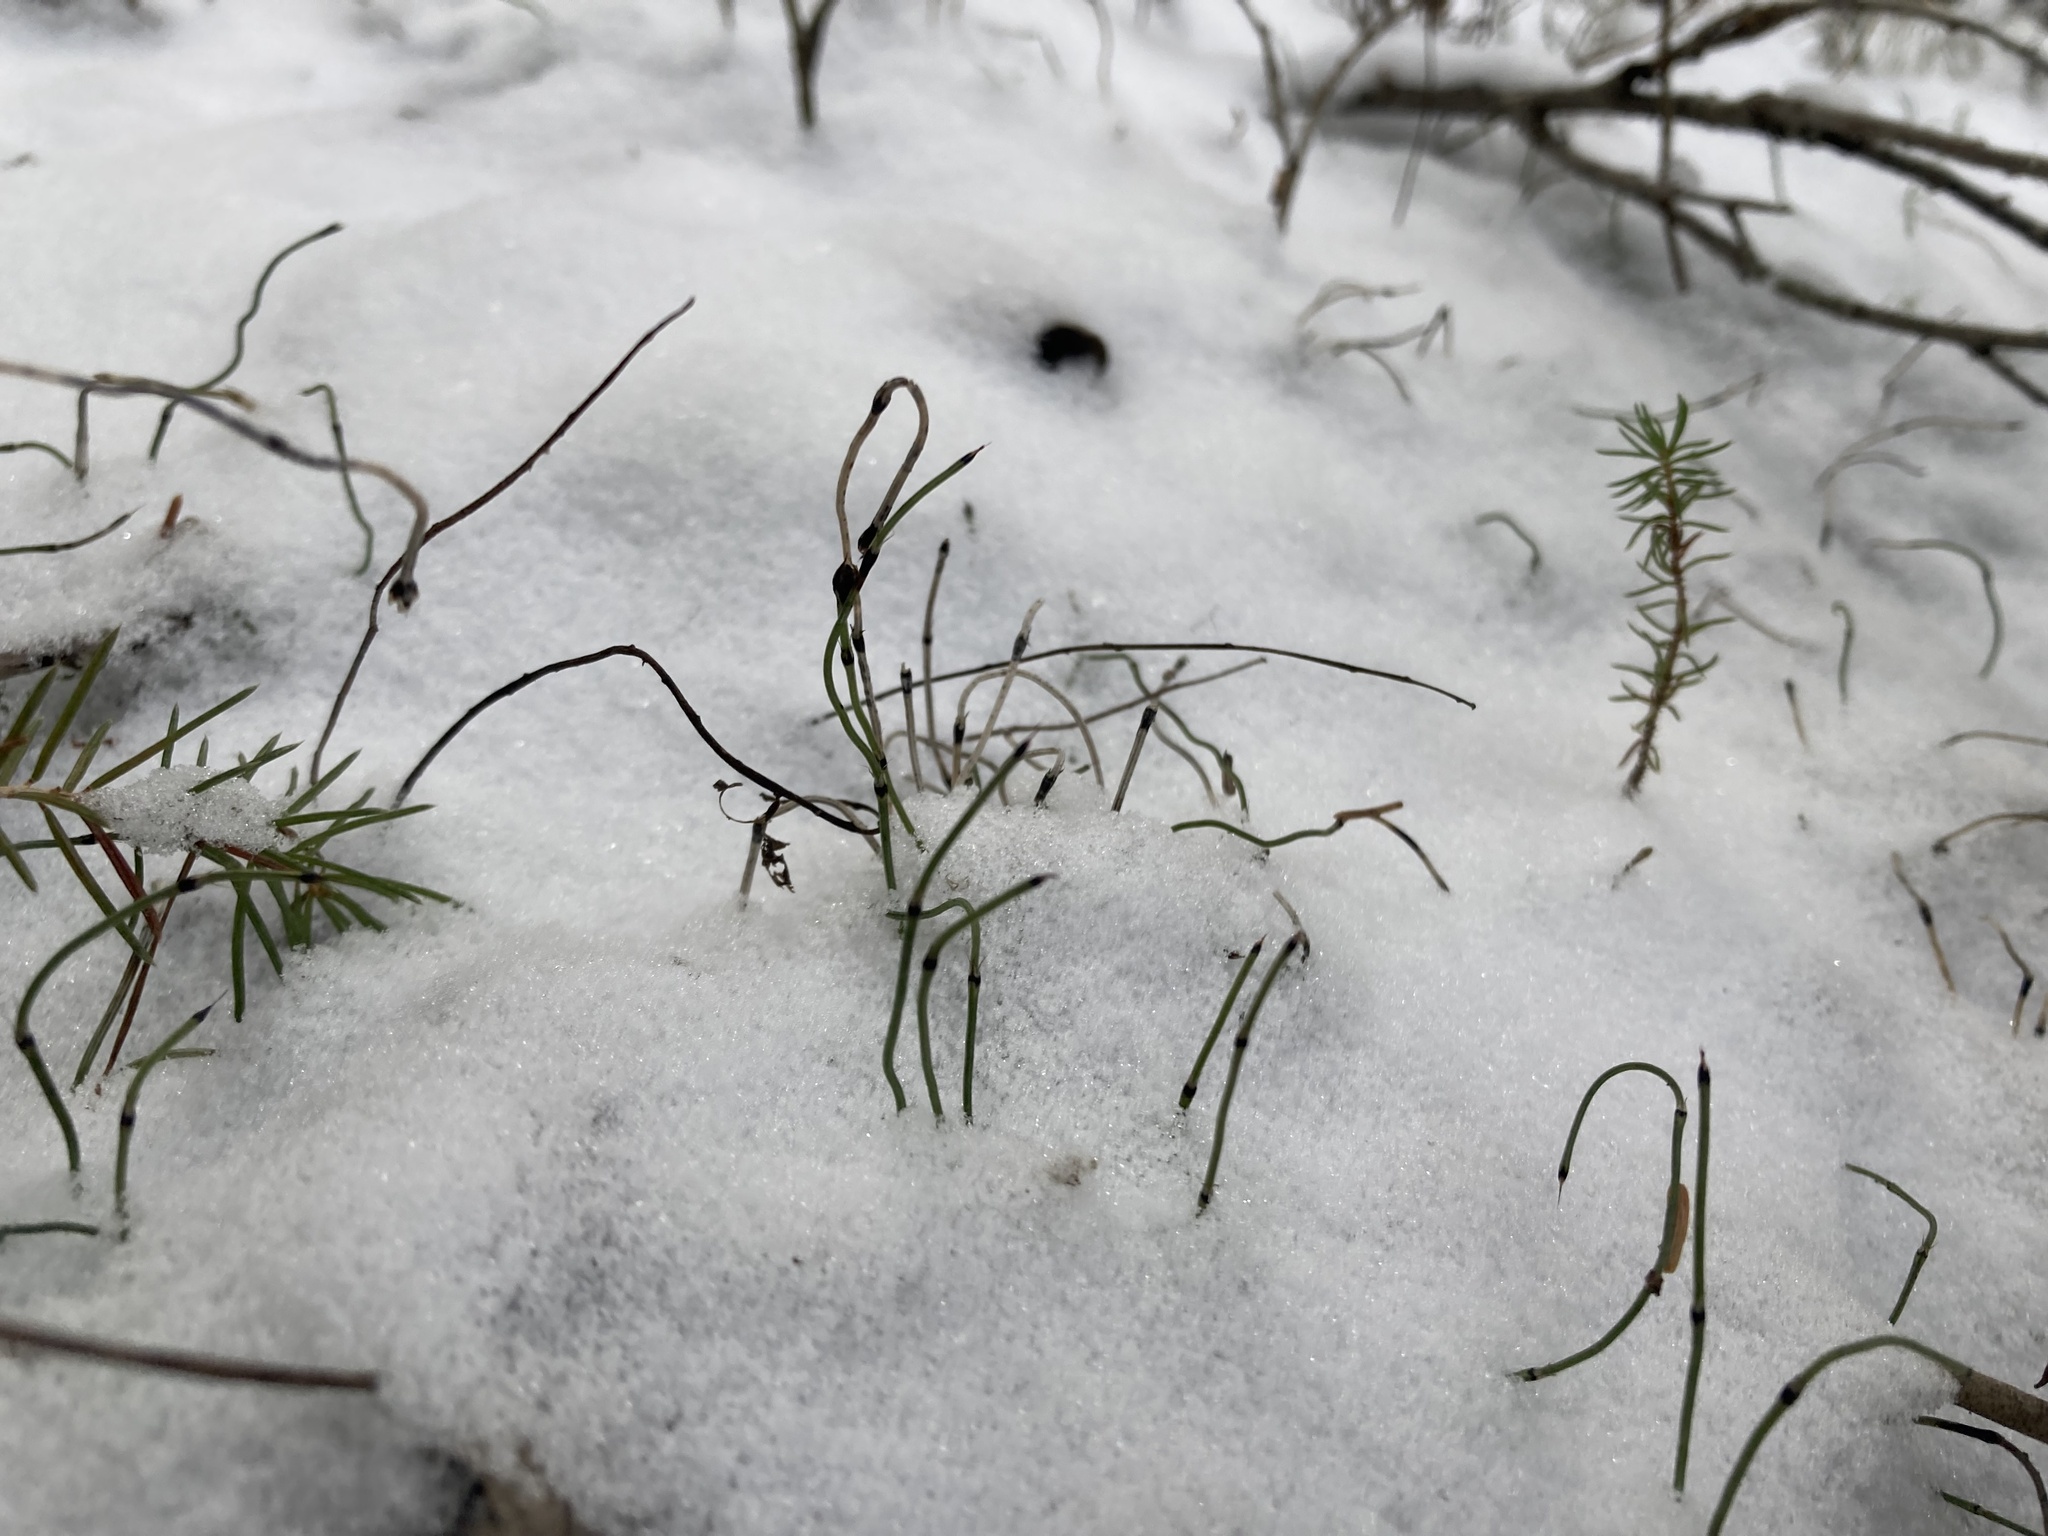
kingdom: Plantae
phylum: Tracheophyta
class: Polypodiopsida
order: Equisetales
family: Equisetaceae
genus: Equisetum
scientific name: Equisetum scirpoides
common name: Delicate horsetail
